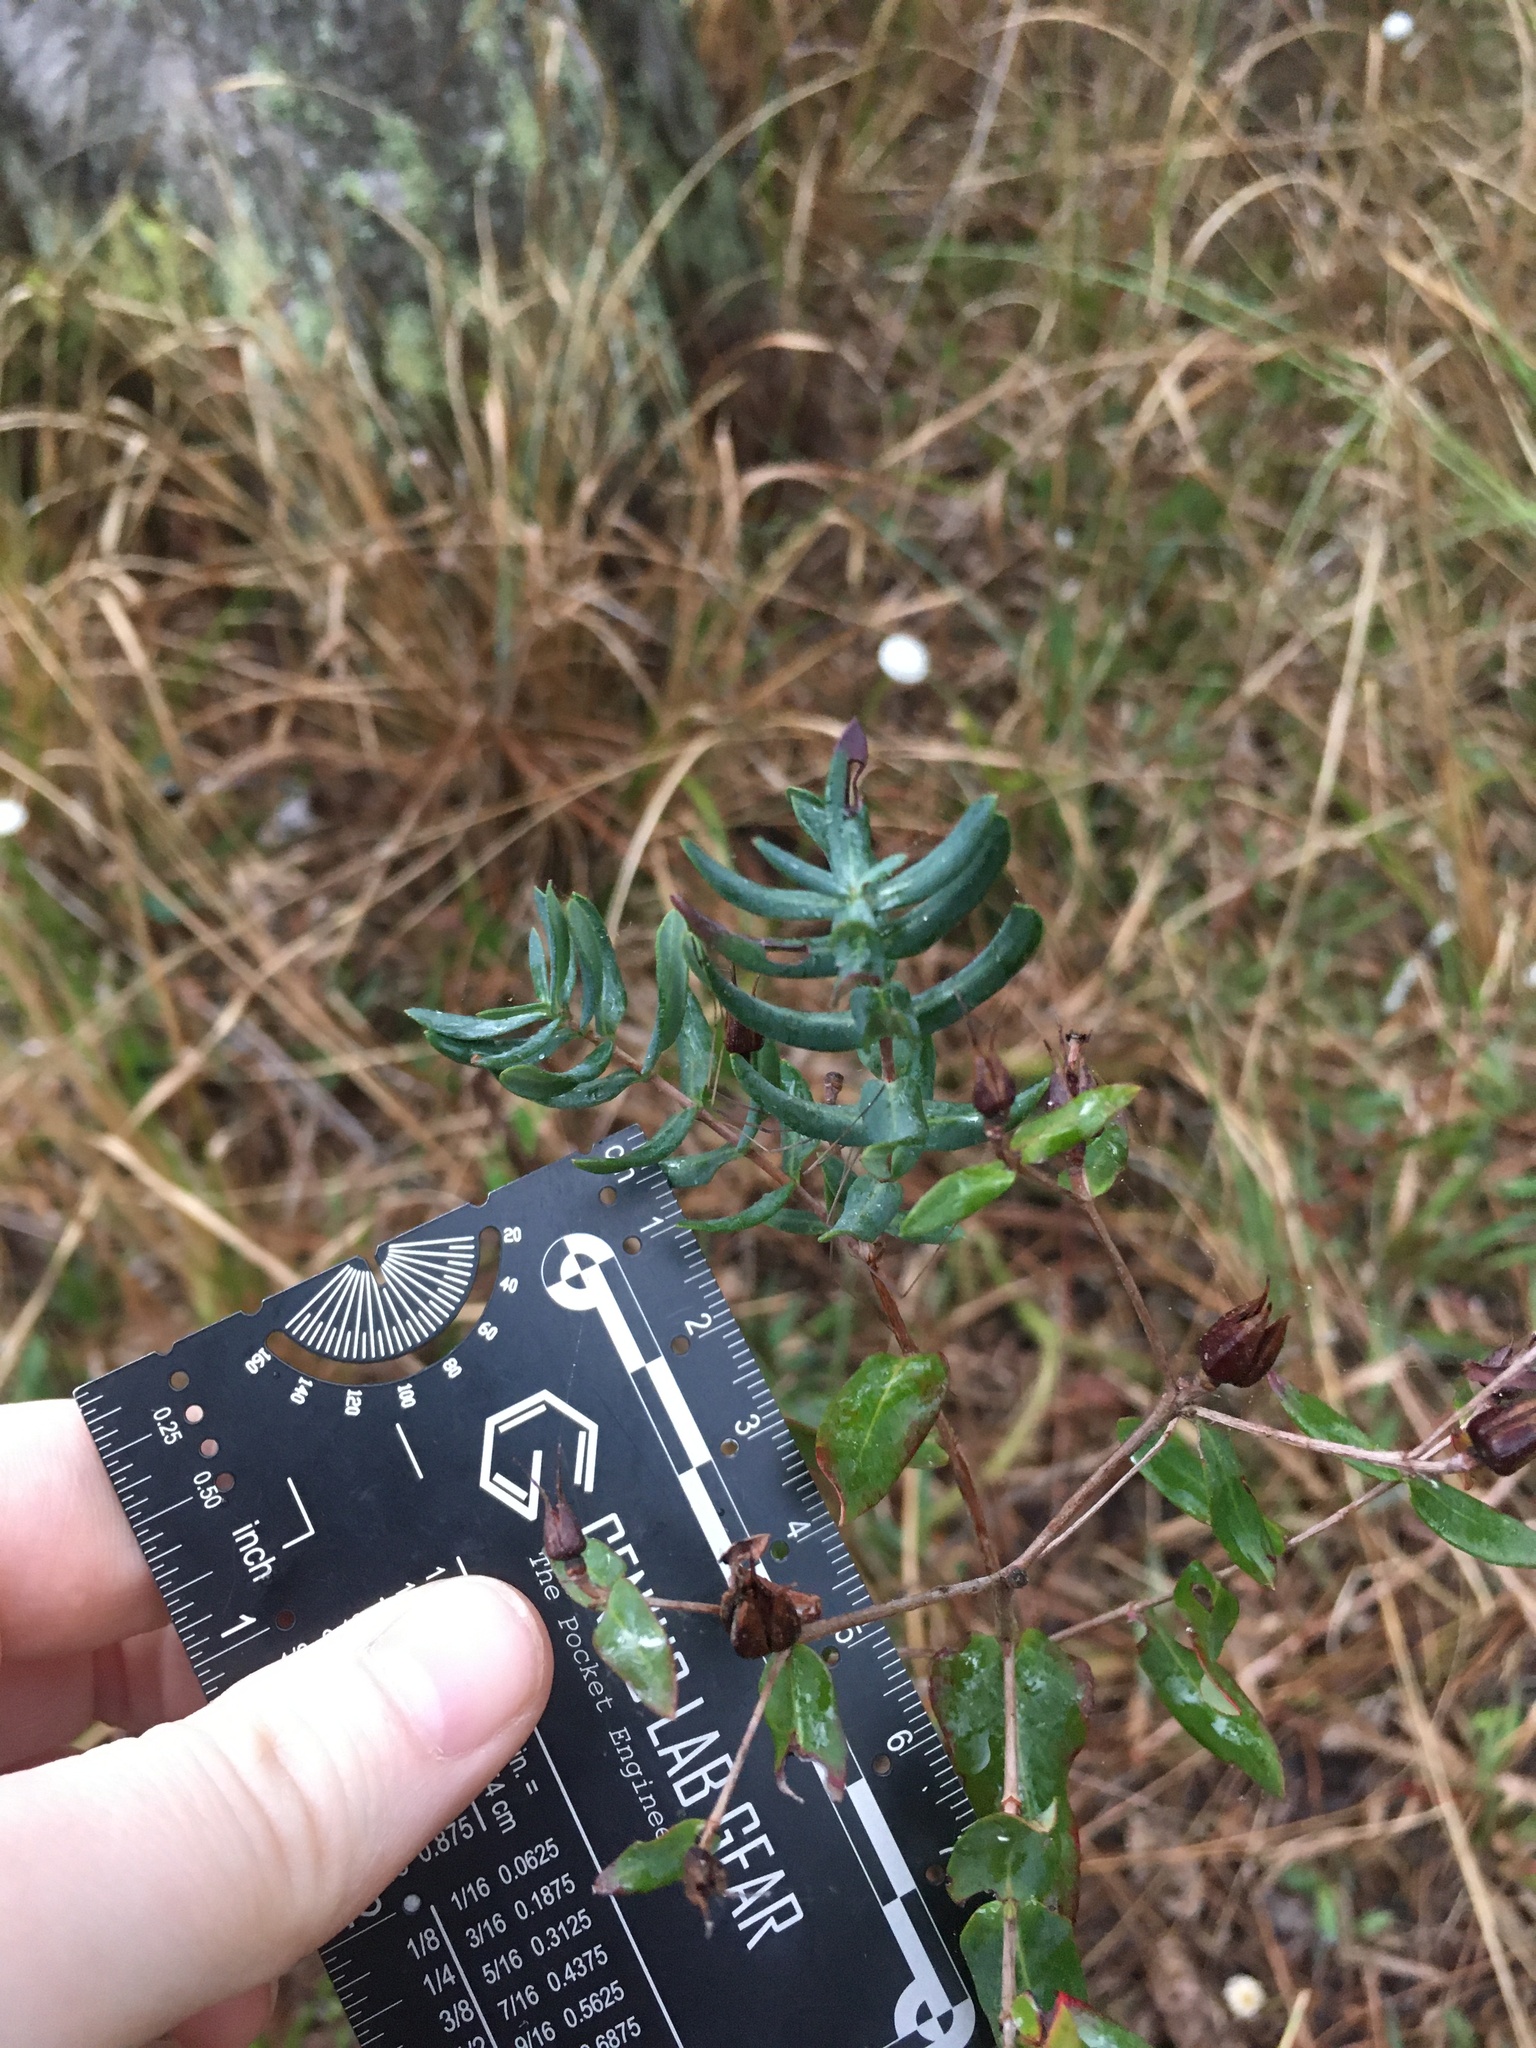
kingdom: Plantae
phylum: Tracheophyta
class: Magnoliopsida
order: Malpighiales
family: Hypericaceae
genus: Hypericum
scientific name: Hypericum myrtifolium
